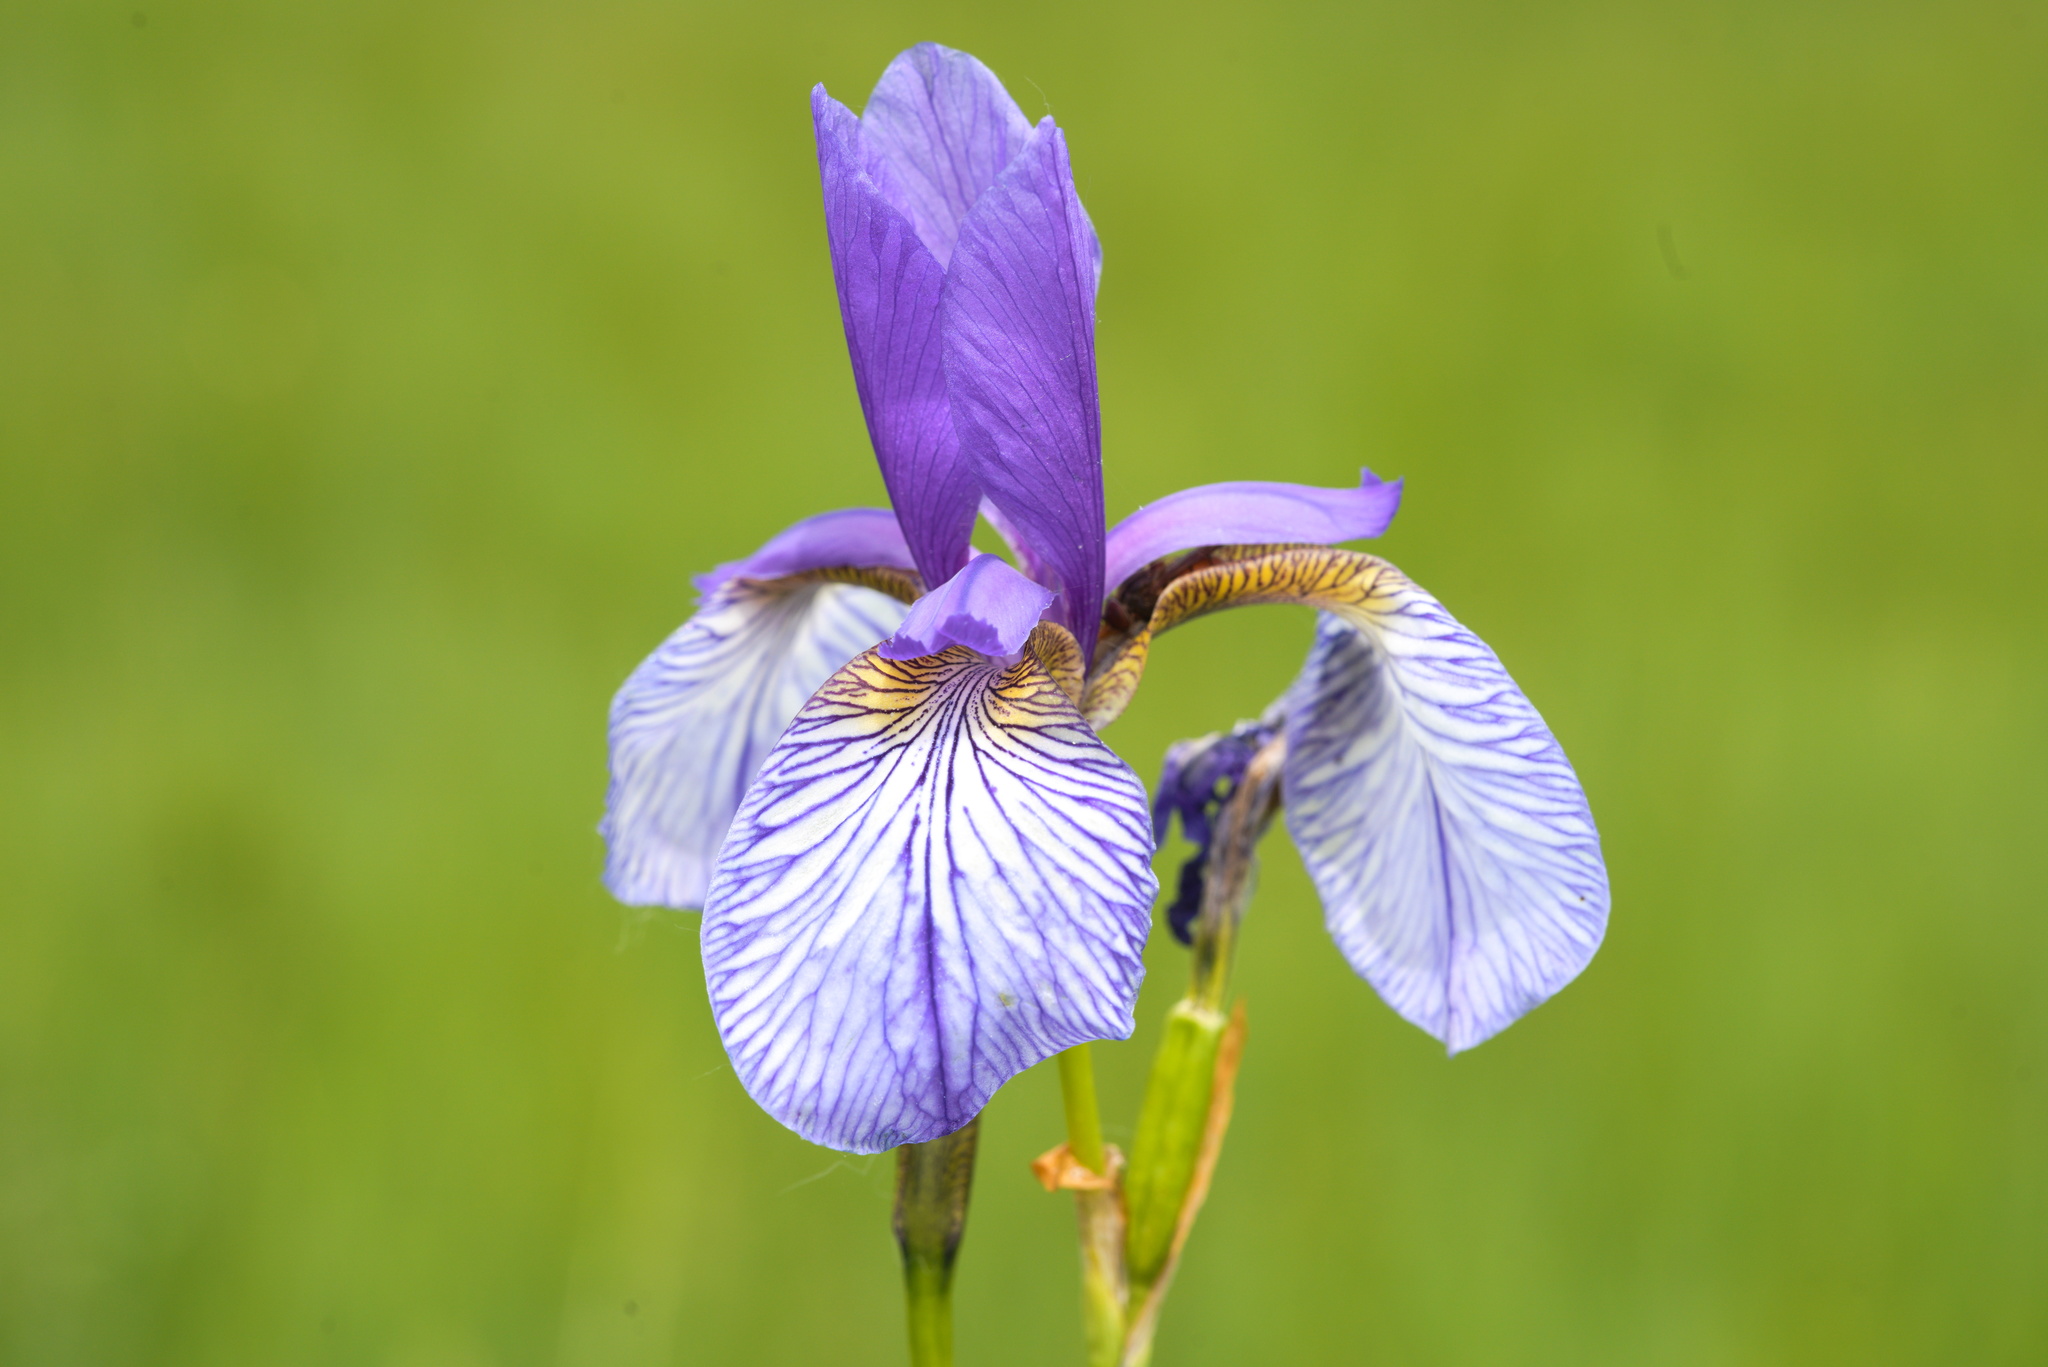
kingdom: Plantae
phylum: Tracheophyta
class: Liliopsida
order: Asparagales
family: Iridaceae
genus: Iris
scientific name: Iris sibirica
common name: Siberian iris
